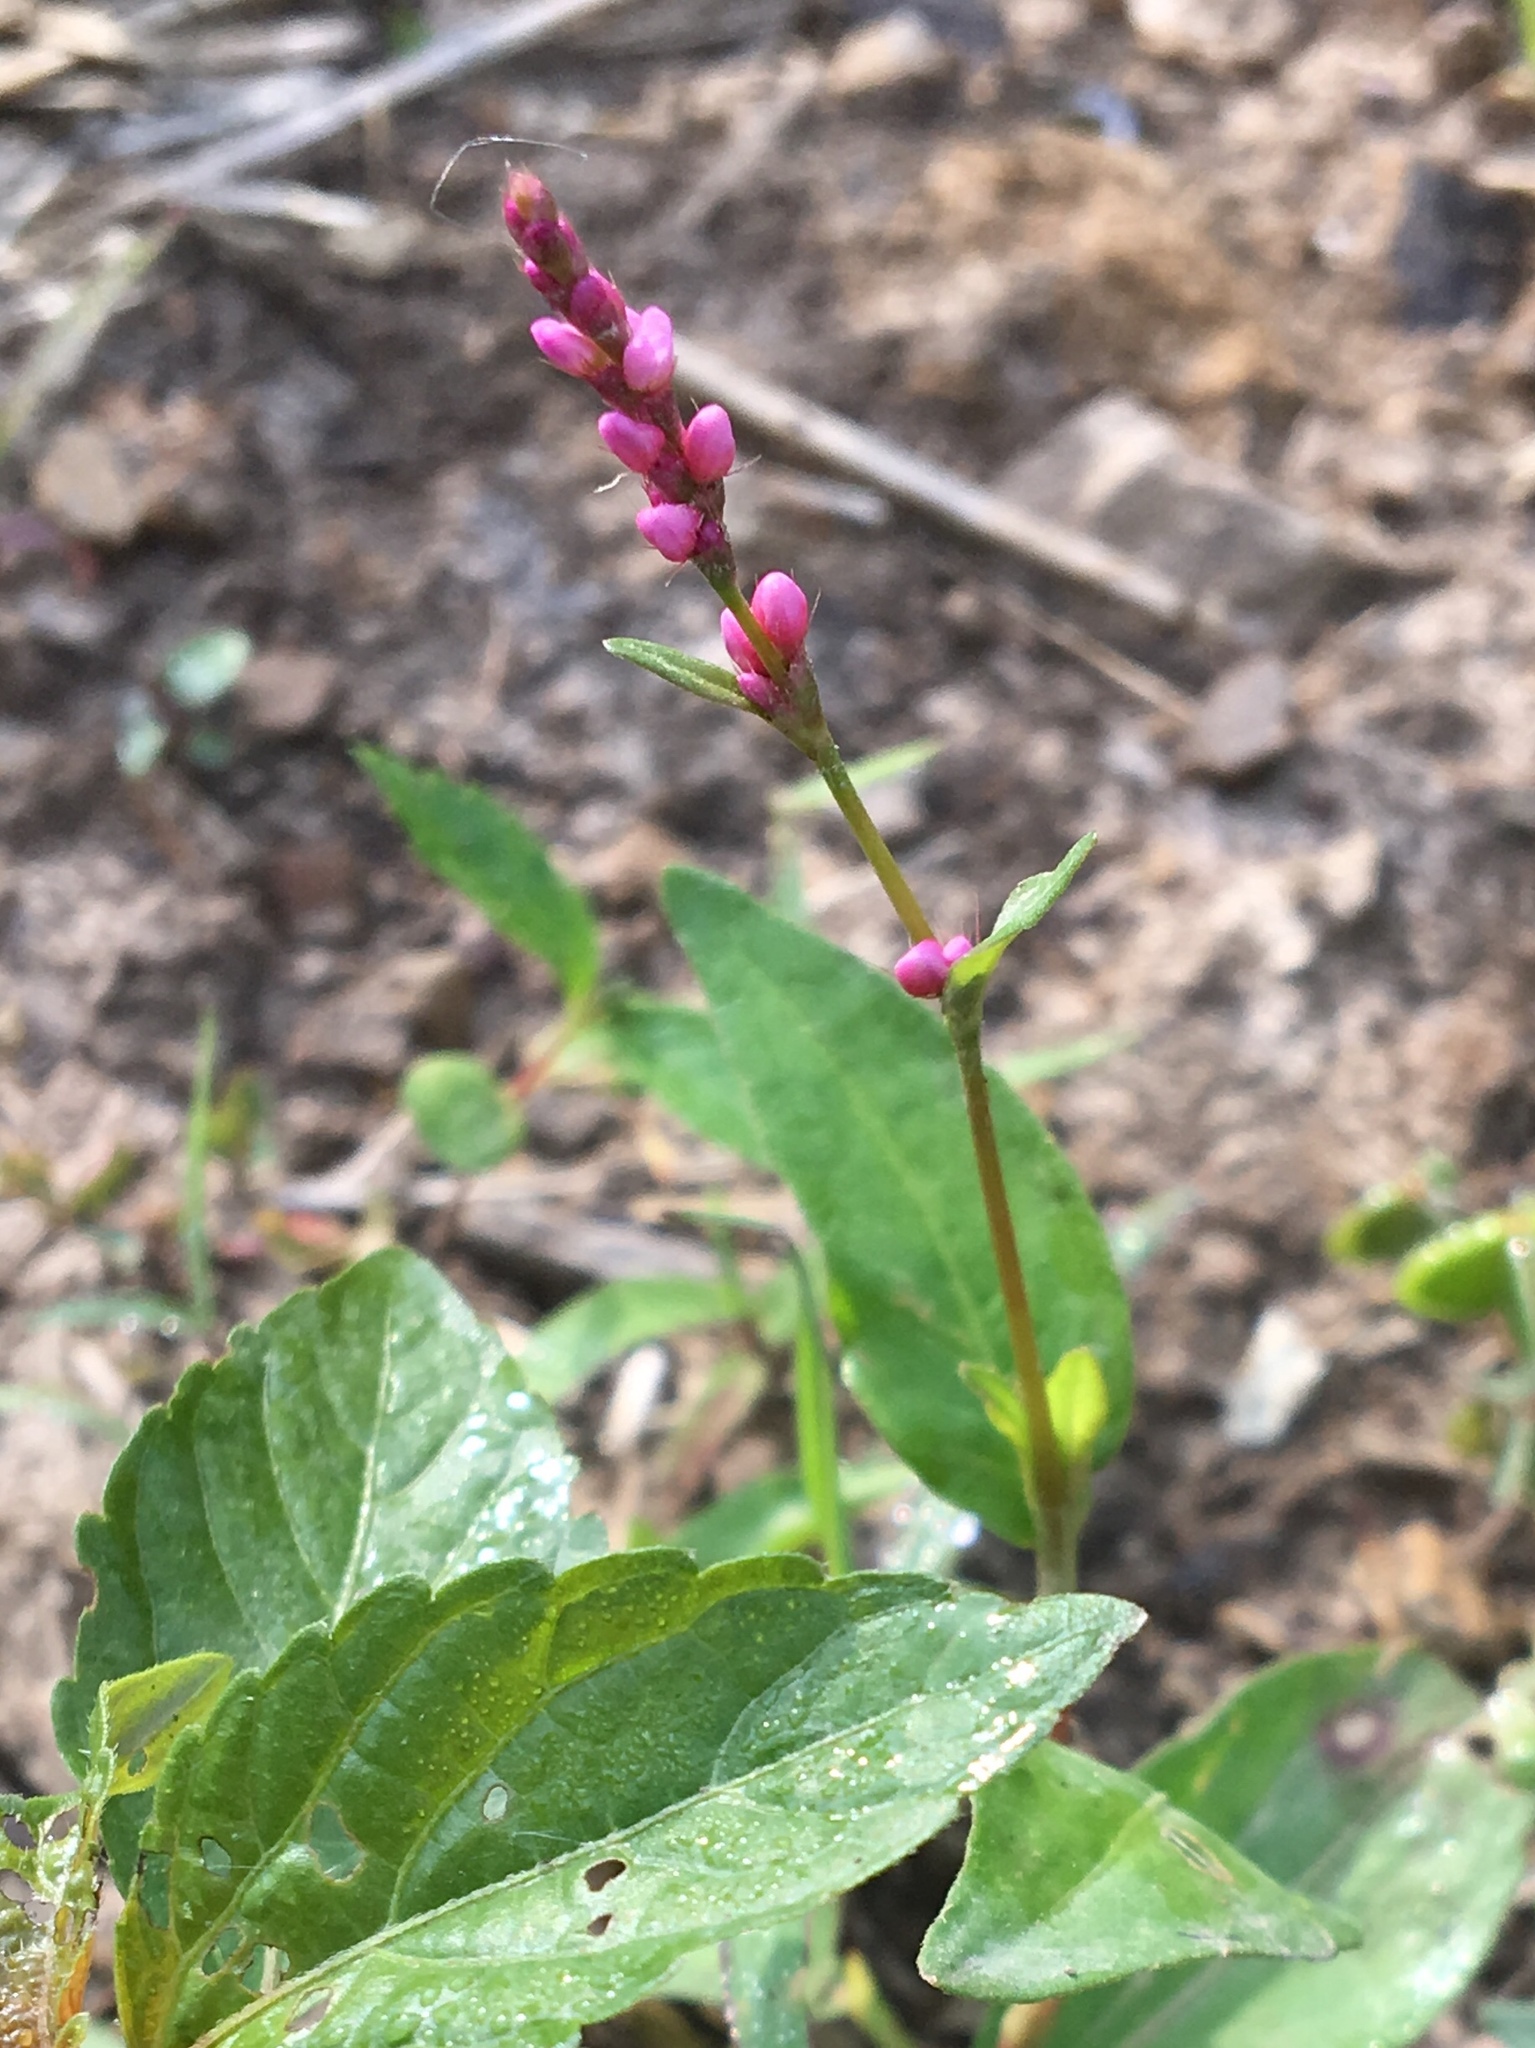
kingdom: Plantae
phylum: Tracheophyta
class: Magnoliopsida
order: Caryophyllales
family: Polygonaceae
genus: Persicaria
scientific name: Persicaria pensylvanica
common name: Pinkweed
